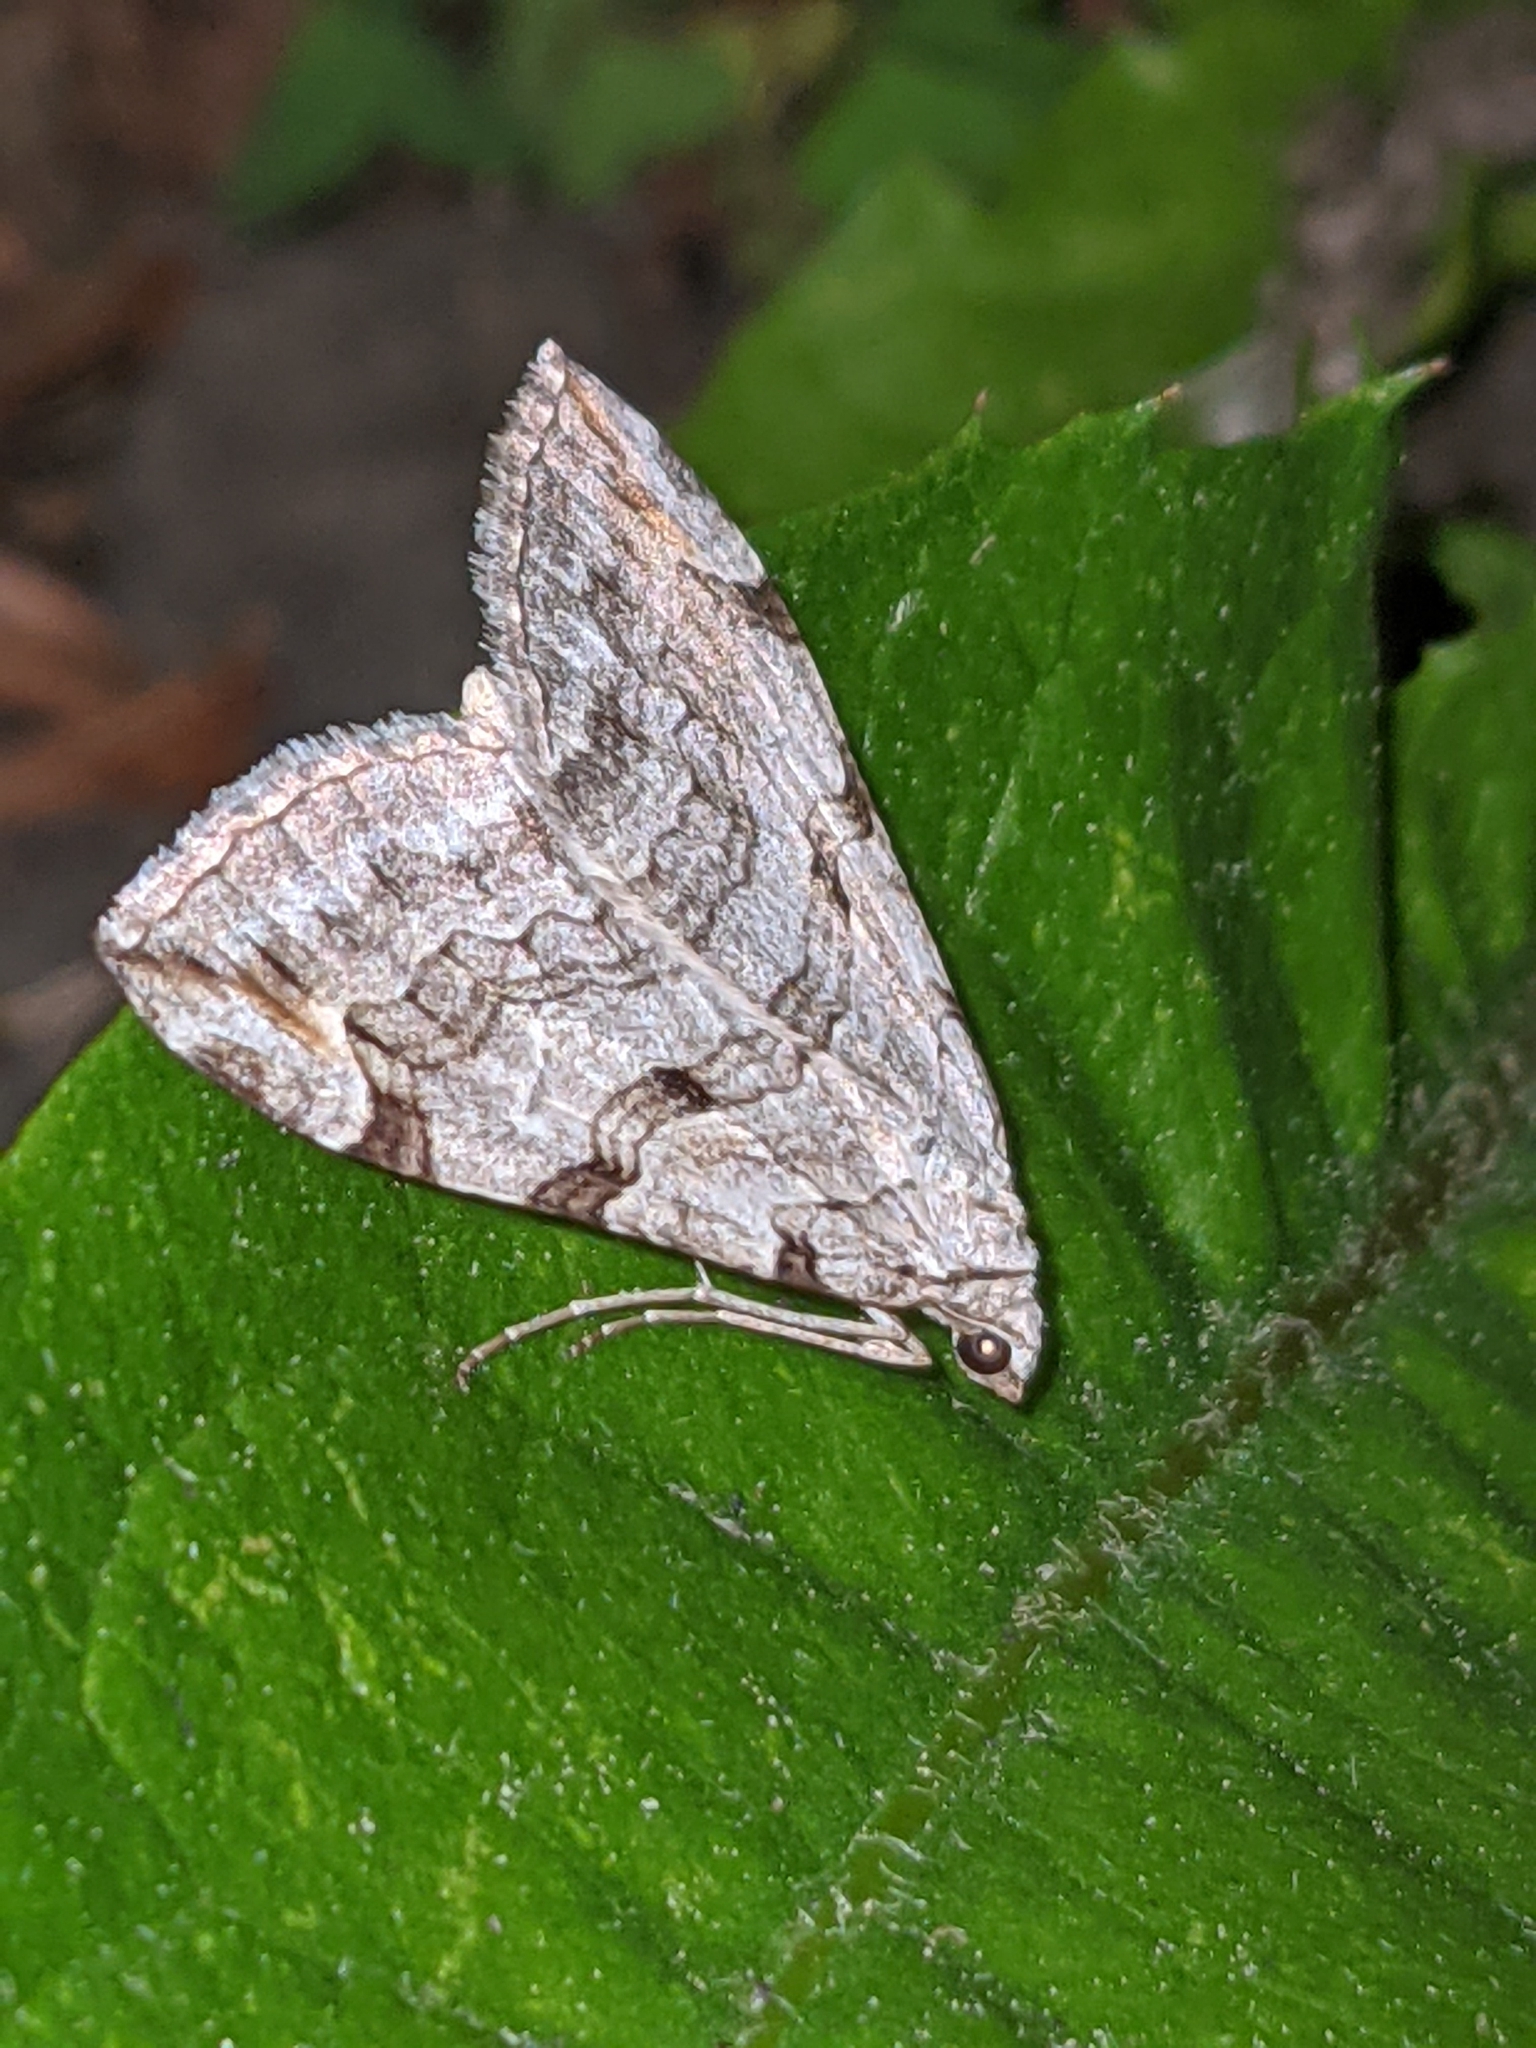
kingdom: Animalia
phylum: Arthropoda
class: Insecta
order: Lepidoptera
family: Geometridae
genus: Aplocera
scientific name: Aplocera plagiata
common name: Treble-bar
